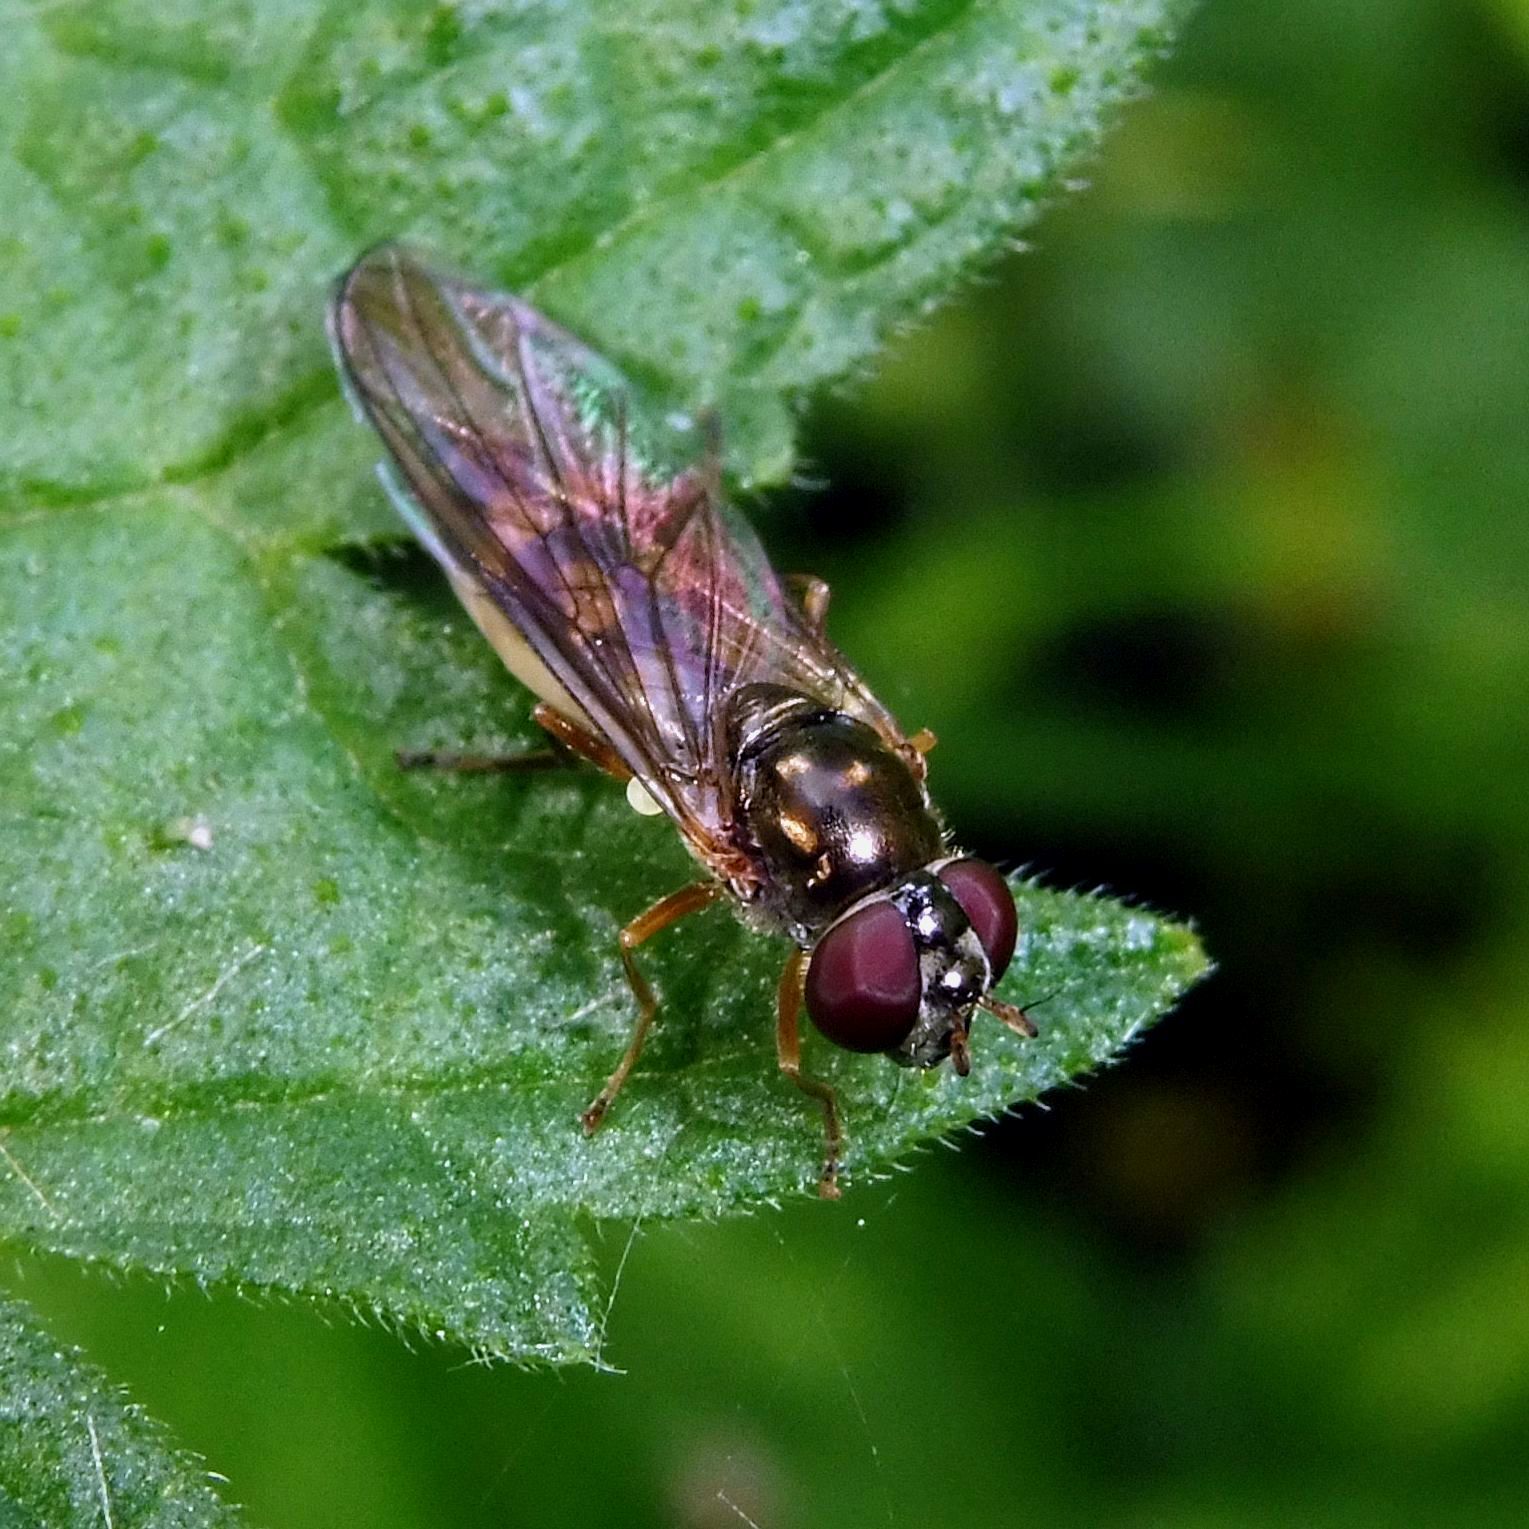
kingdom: Animalia
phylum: Arthropoda
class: Insecta
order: Diptera
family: Syrphidae
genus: Melanostoma
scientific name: Melanostoma scalare
